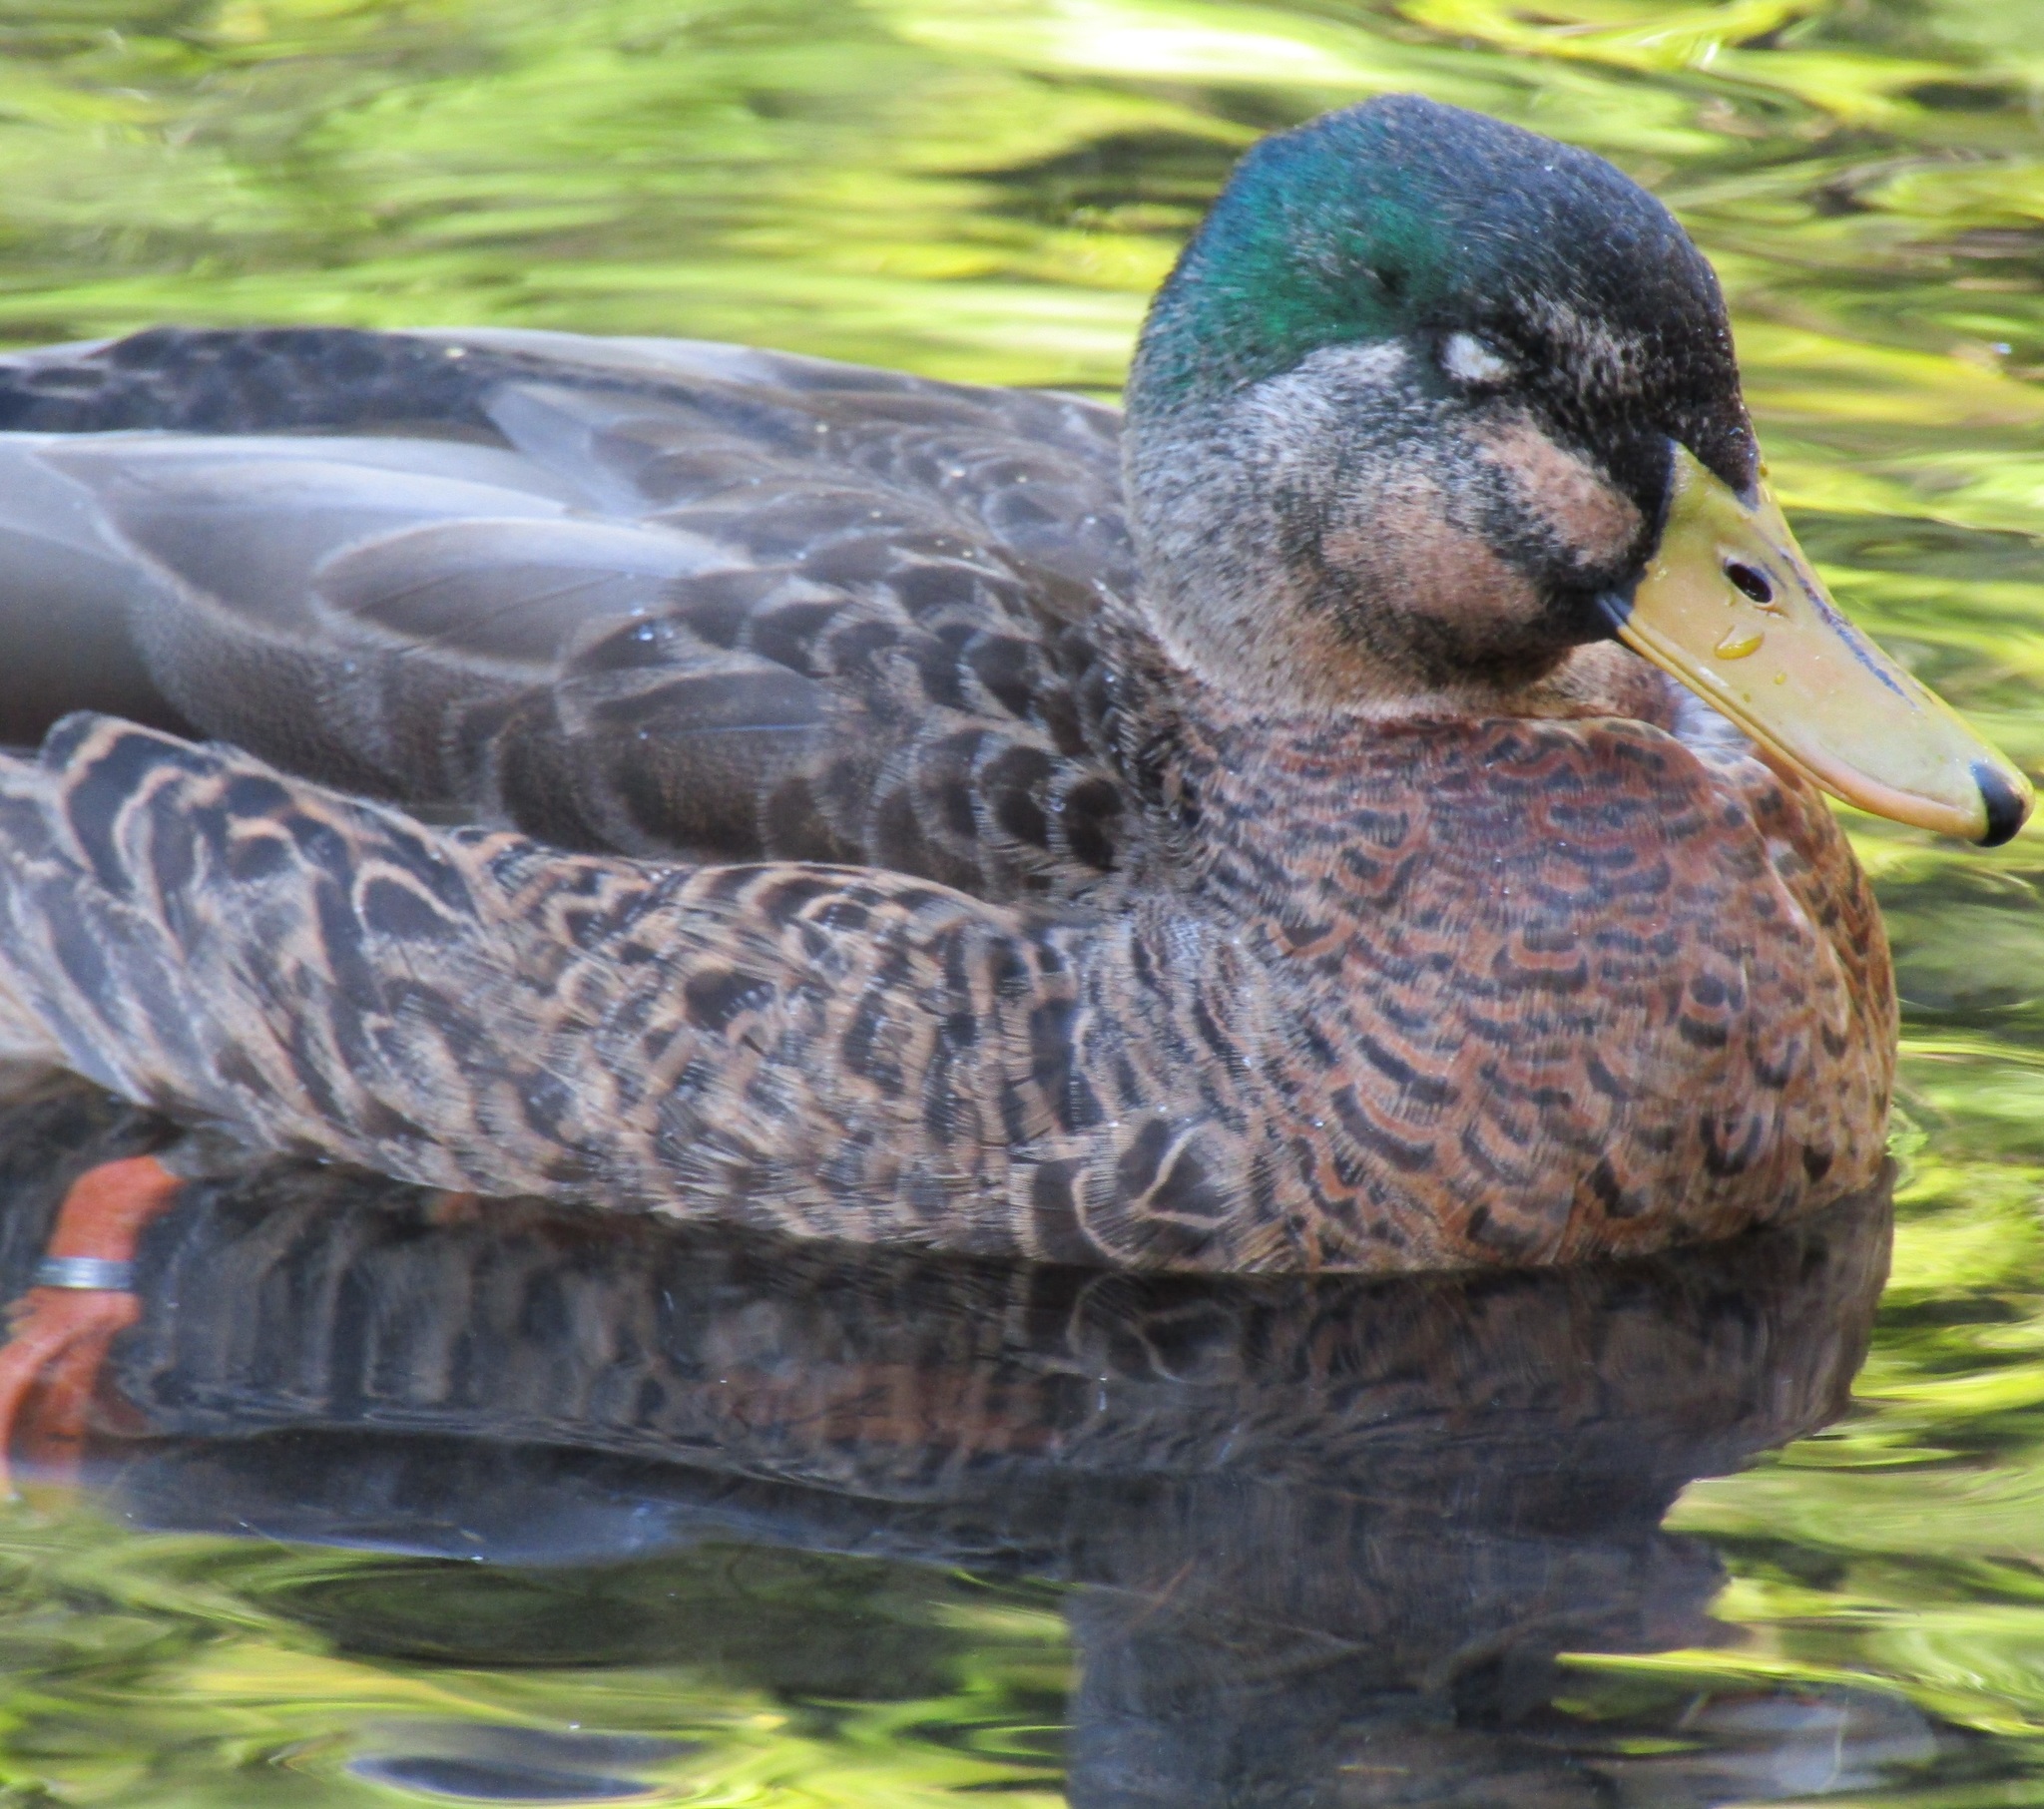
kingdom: Animalia
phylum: Chordata
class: Aves
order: Anseriformes
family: Anatidae
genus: Anas
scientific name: Anas
